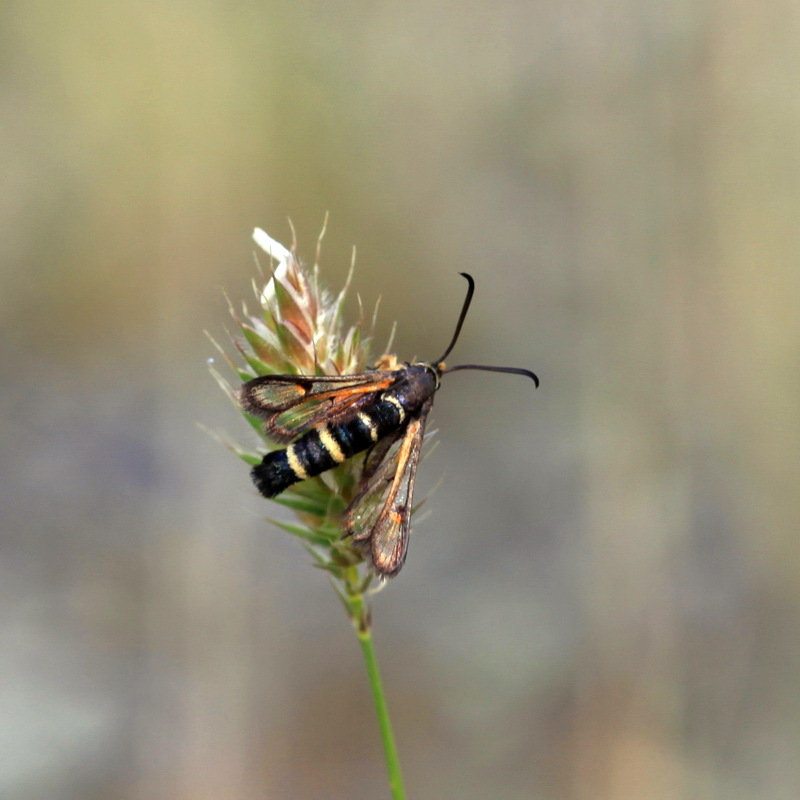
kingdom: Animalia
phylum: Arthropoda
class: Insecta
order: Lepidoptera
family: Sesiidae
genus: Bembecia
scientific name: Bembecia puella
